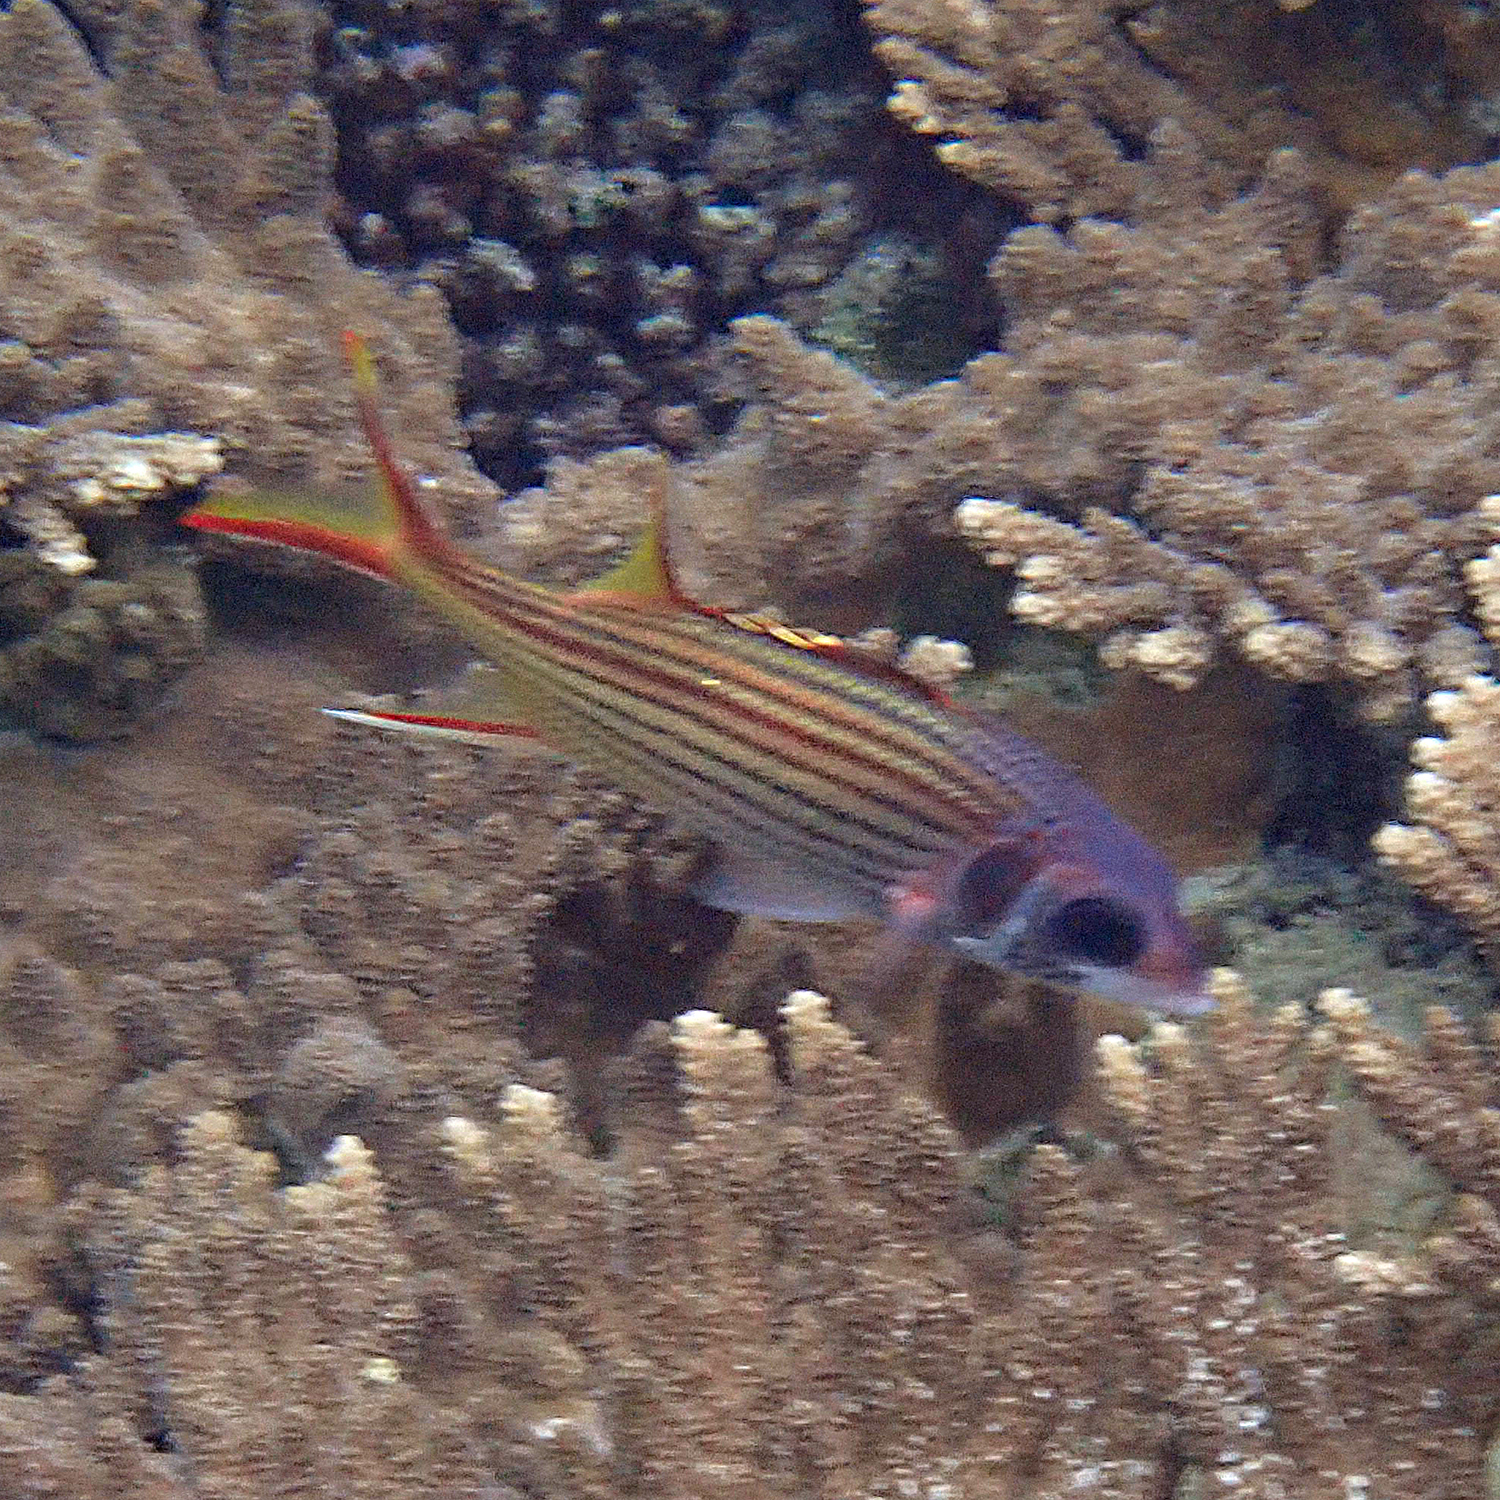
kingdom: Animalia
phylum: Chordata
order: Beryciformes
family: Holocentridae
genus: Neoniphon
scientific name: Neoniphon sammara
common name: Sammara squirrelfish
